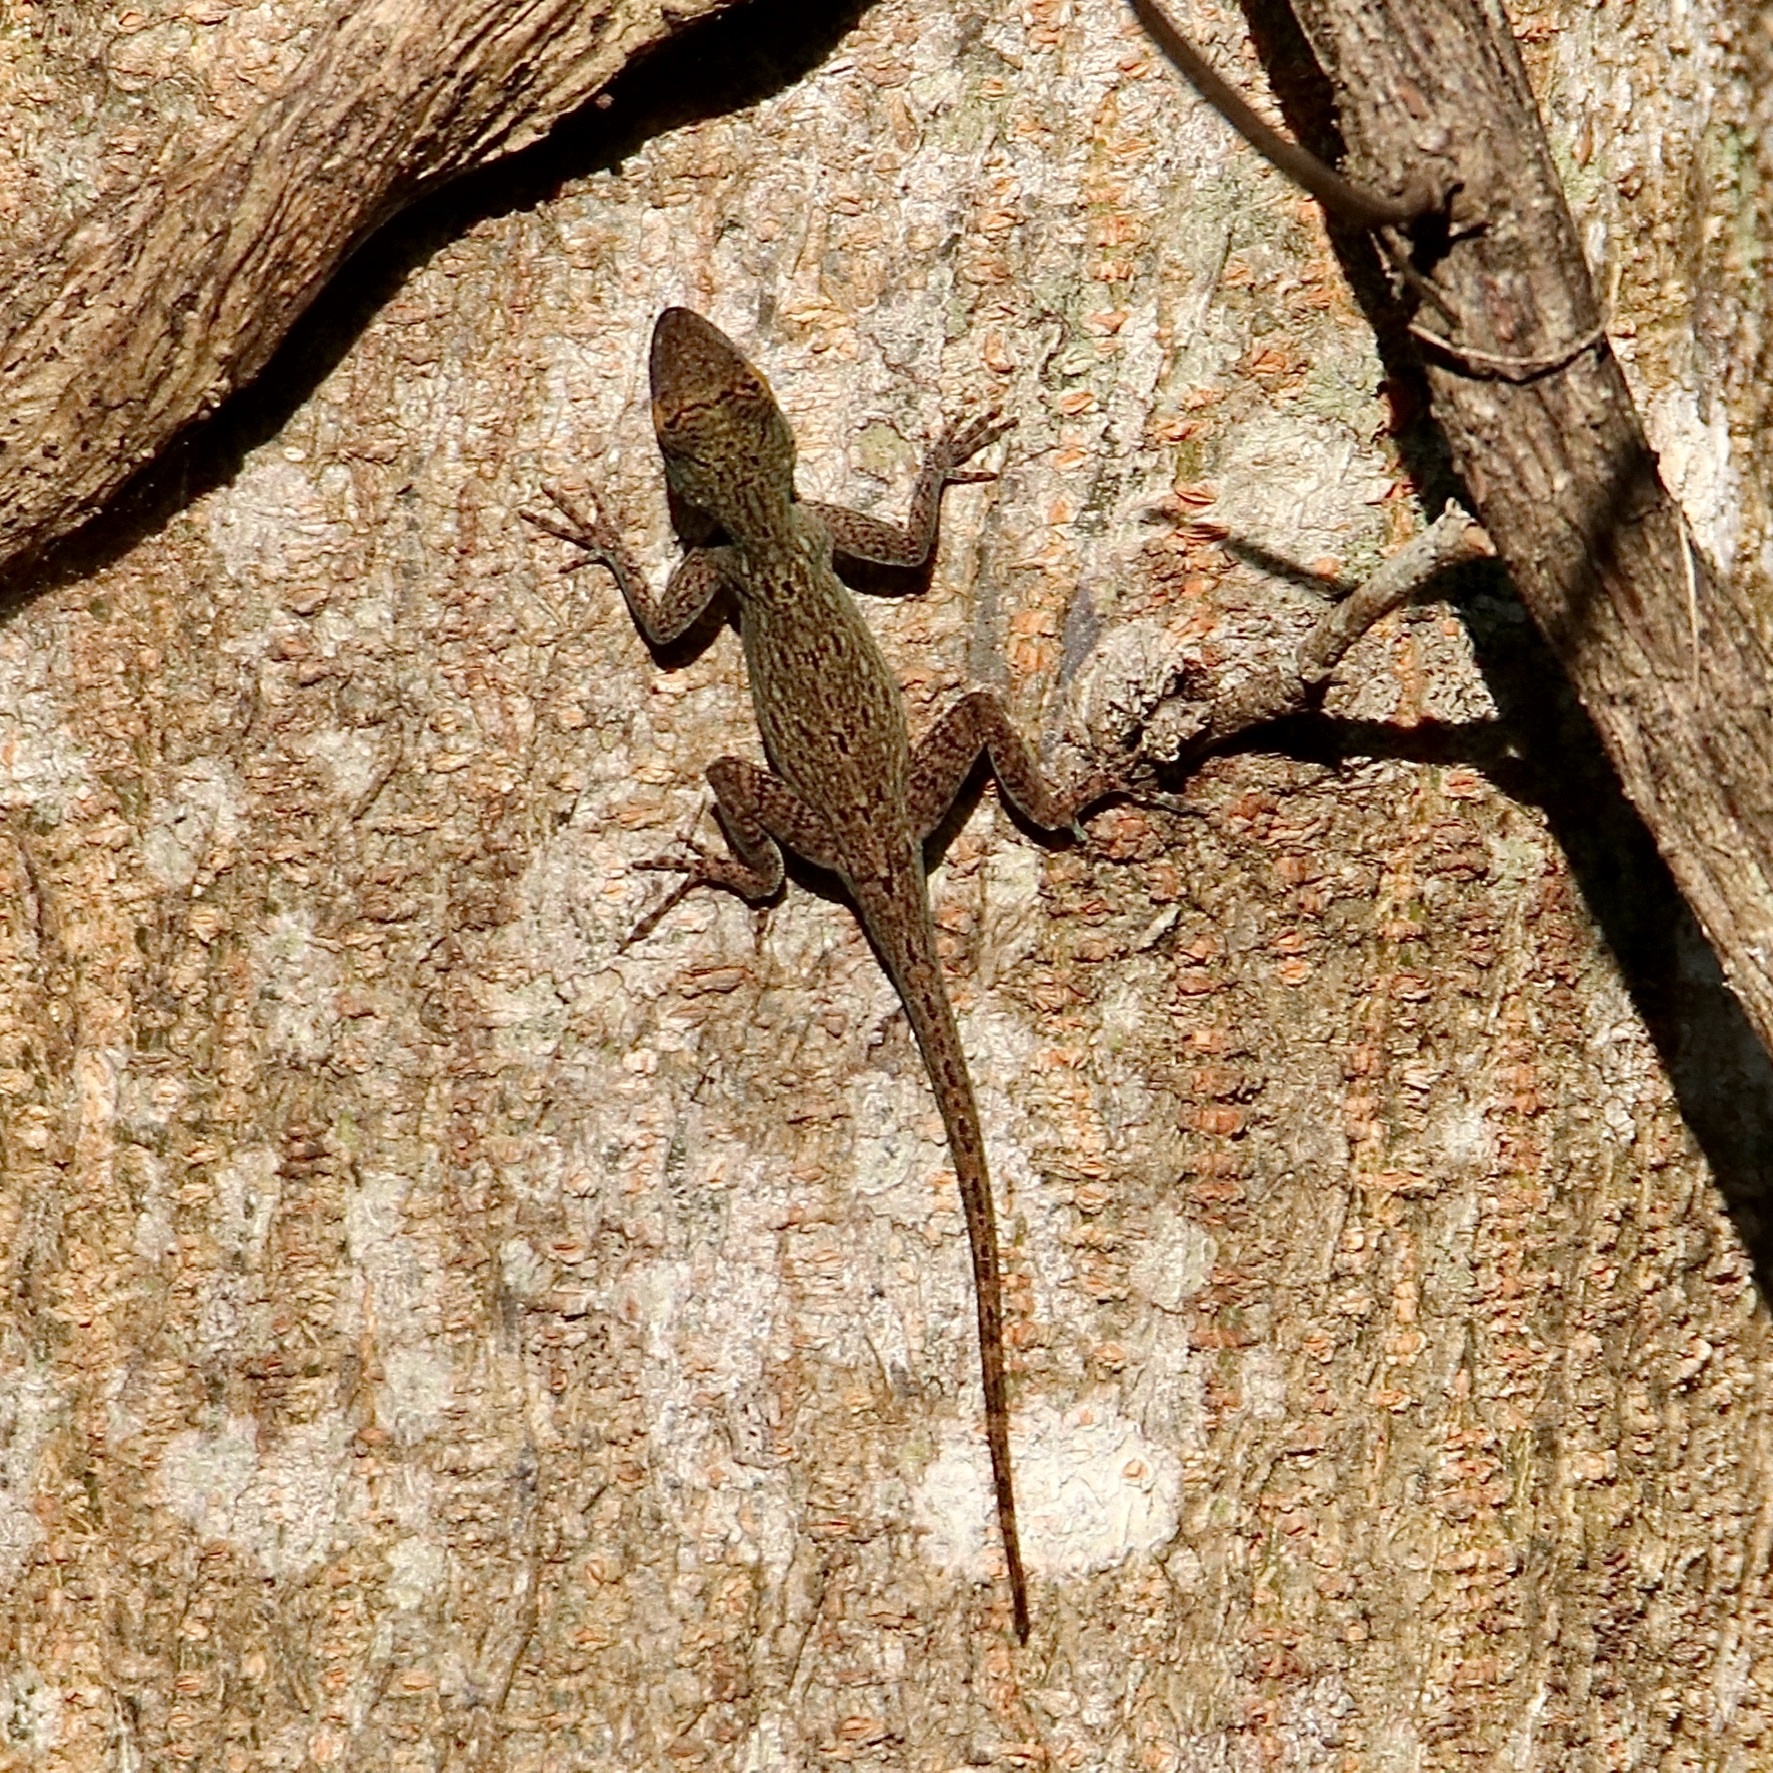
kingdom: Animalia
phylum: Chordata
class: Squamata
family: Dactyloidae
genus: Anolis
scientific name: Anolis distichus
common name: Bark anole
